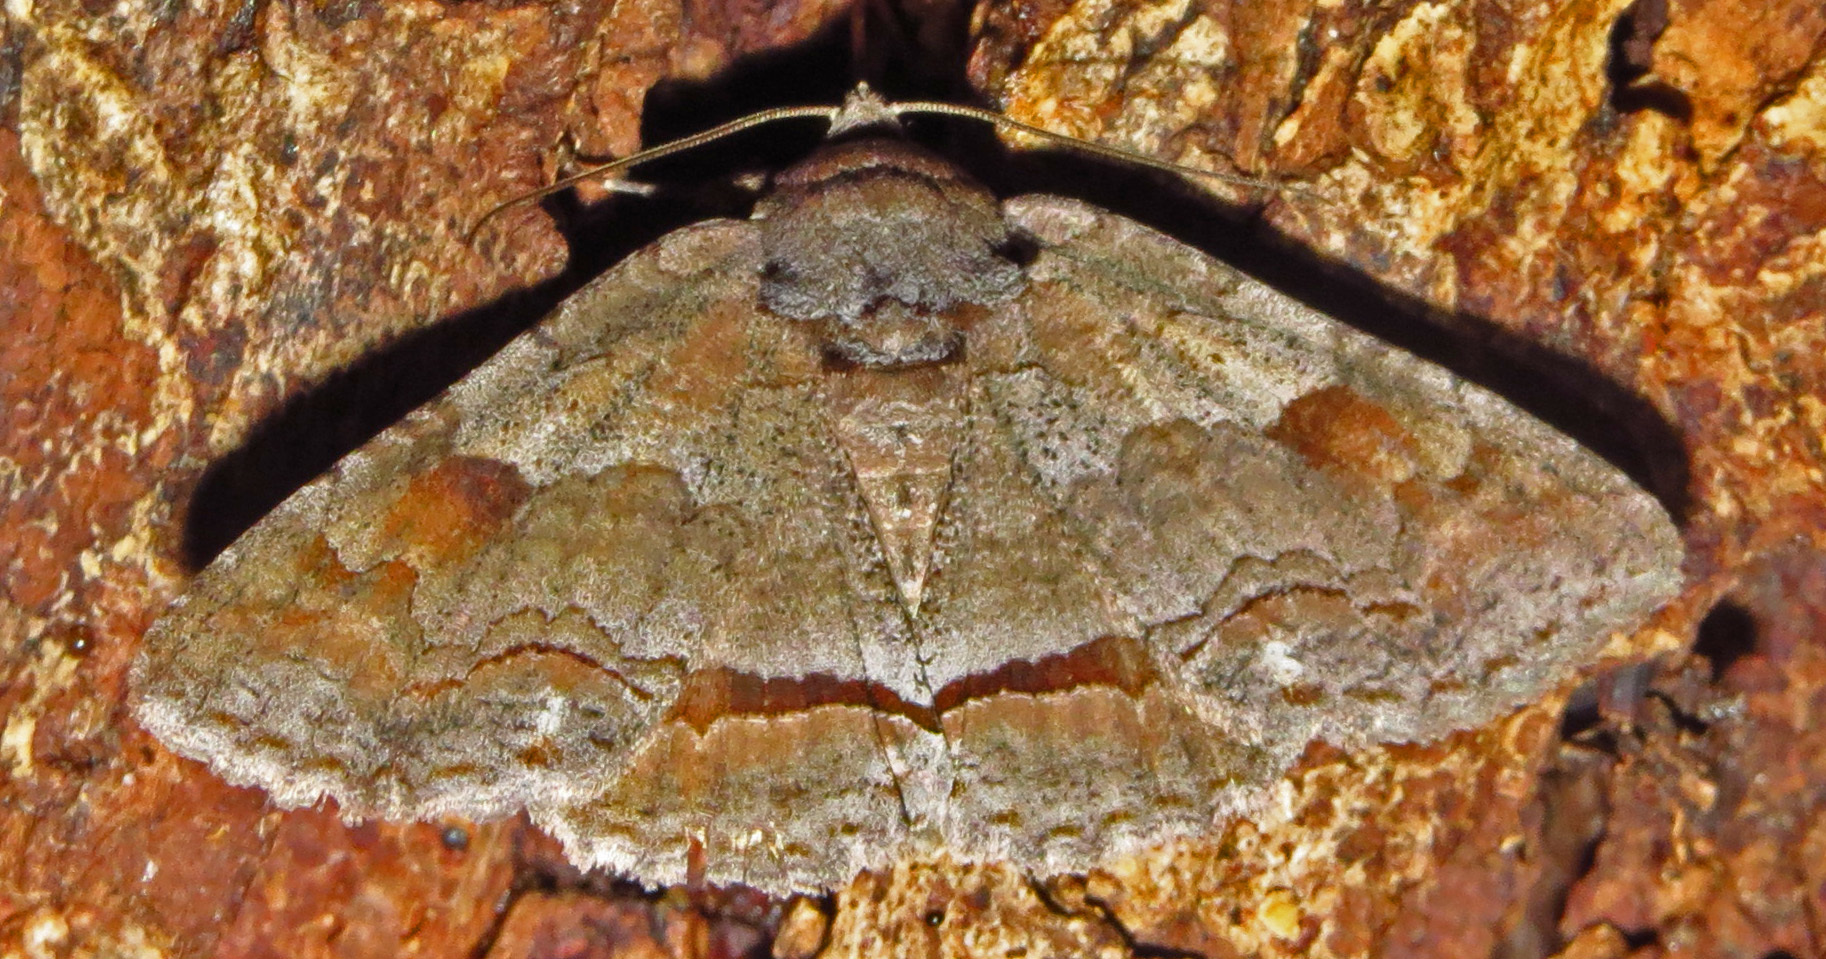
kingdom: Animalia
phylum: Arthropoda
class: Insecta
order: Lepidoptera
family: Erebidae
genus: Zale
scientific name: Zale obliqua
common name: Oblique zale moth
